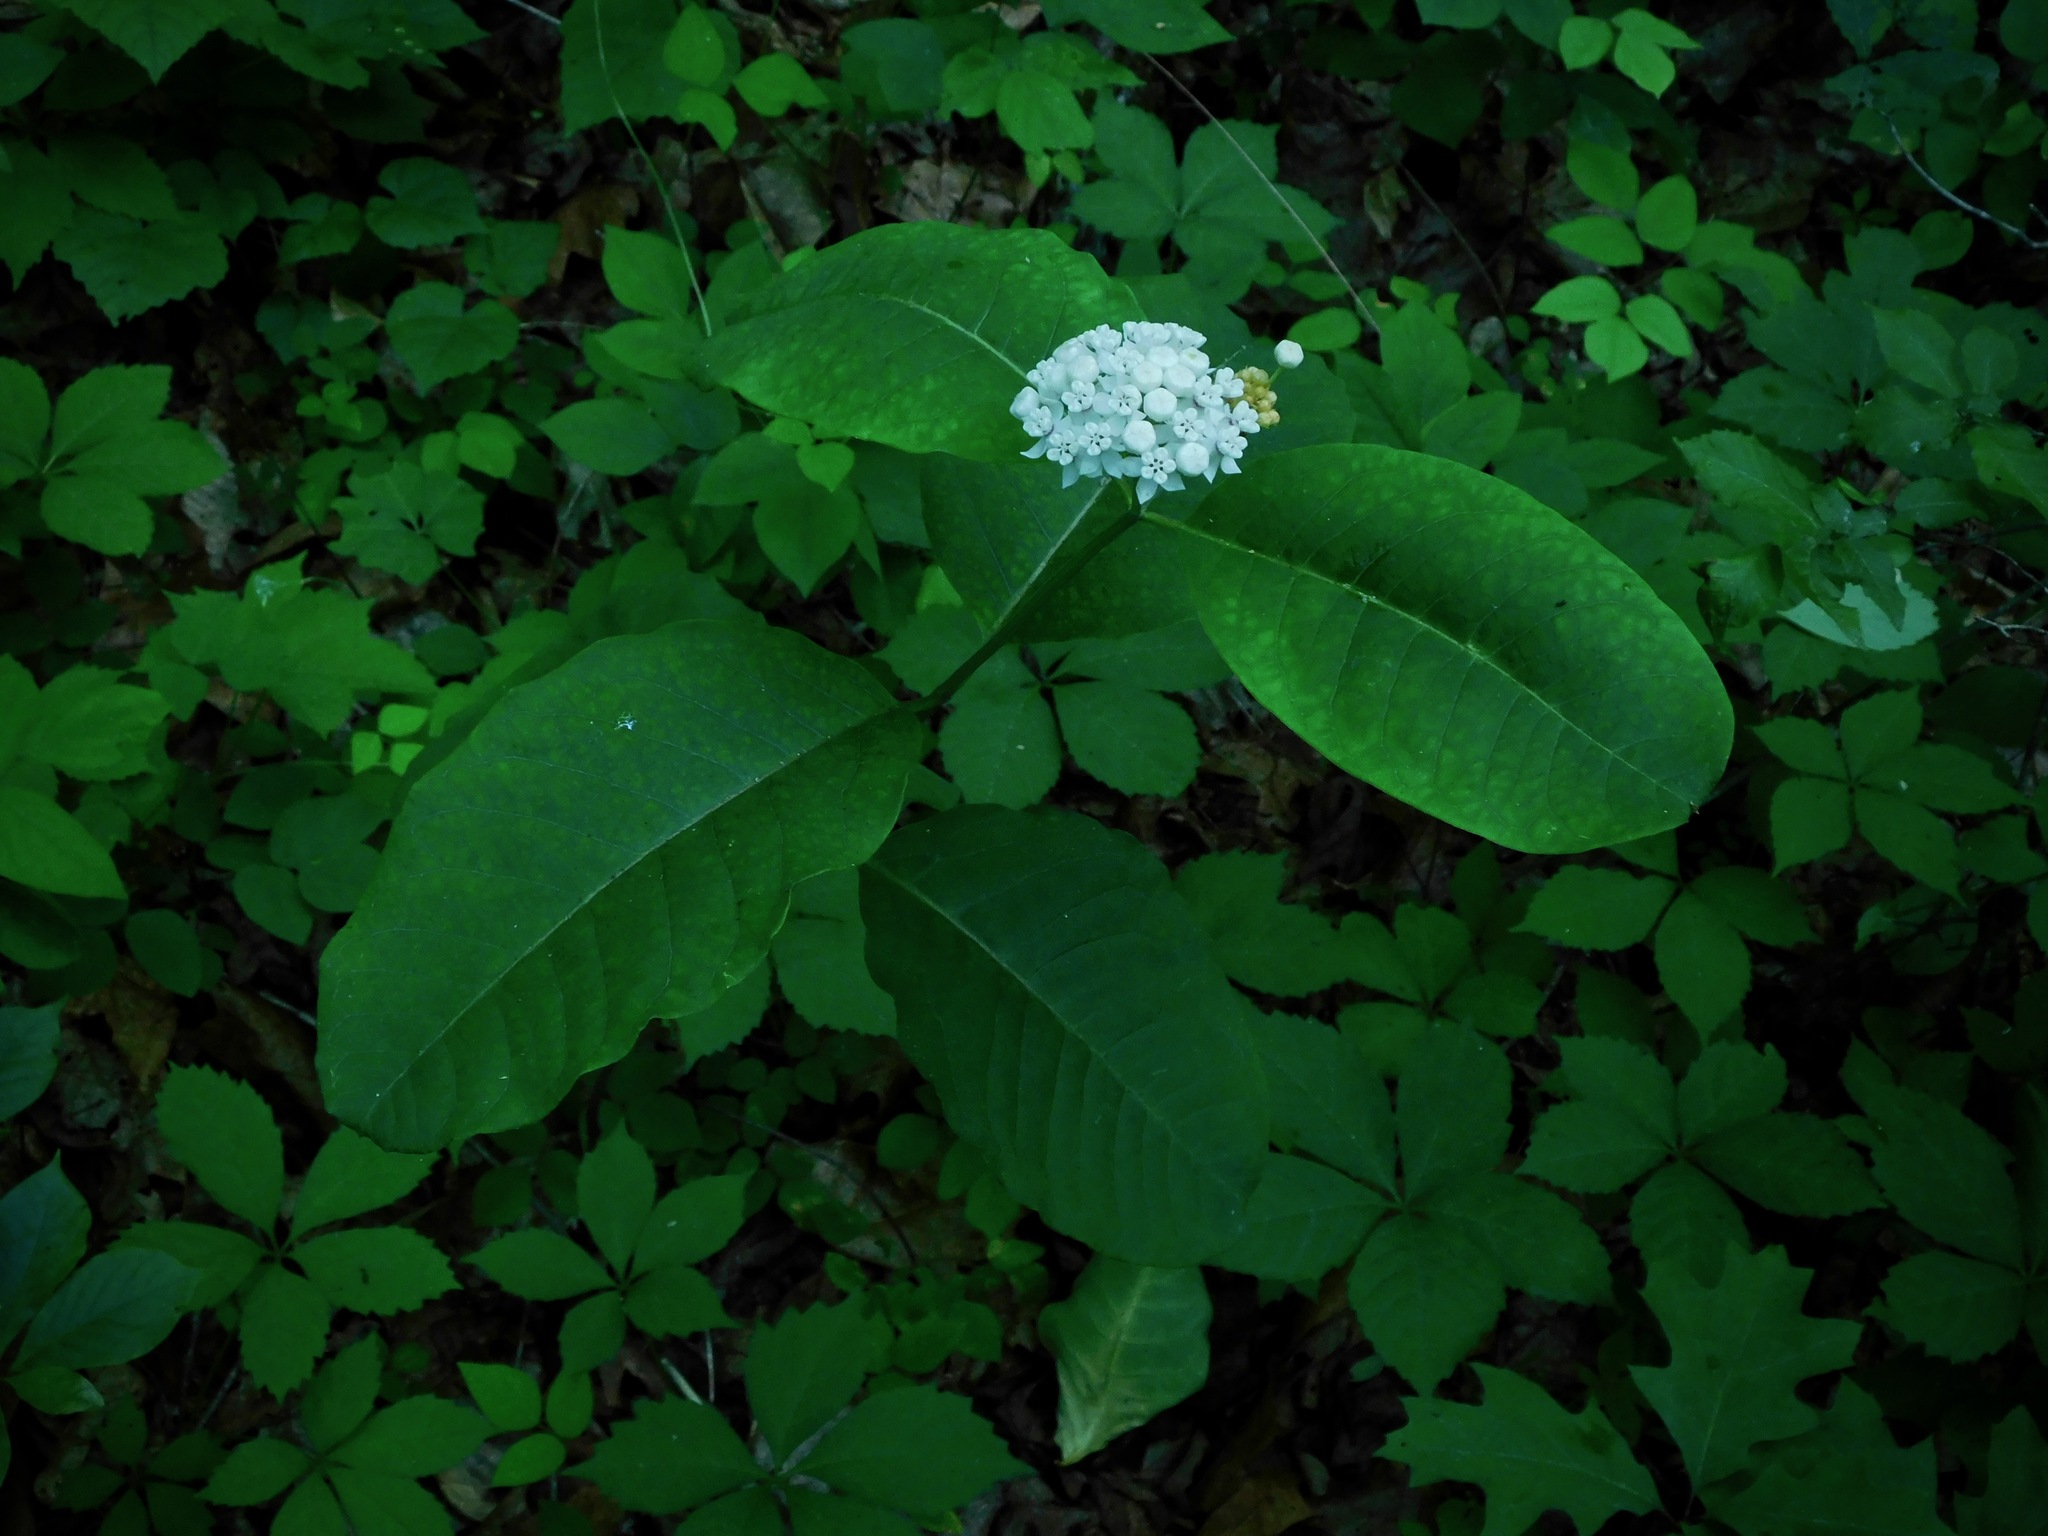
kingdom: Plantae
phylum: Tracheophyta
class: Magnoliopsida
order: Gentianales
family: Apocynaceae
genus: Asclepias
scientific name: Asclepias variegata
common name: Variegated milkweed
